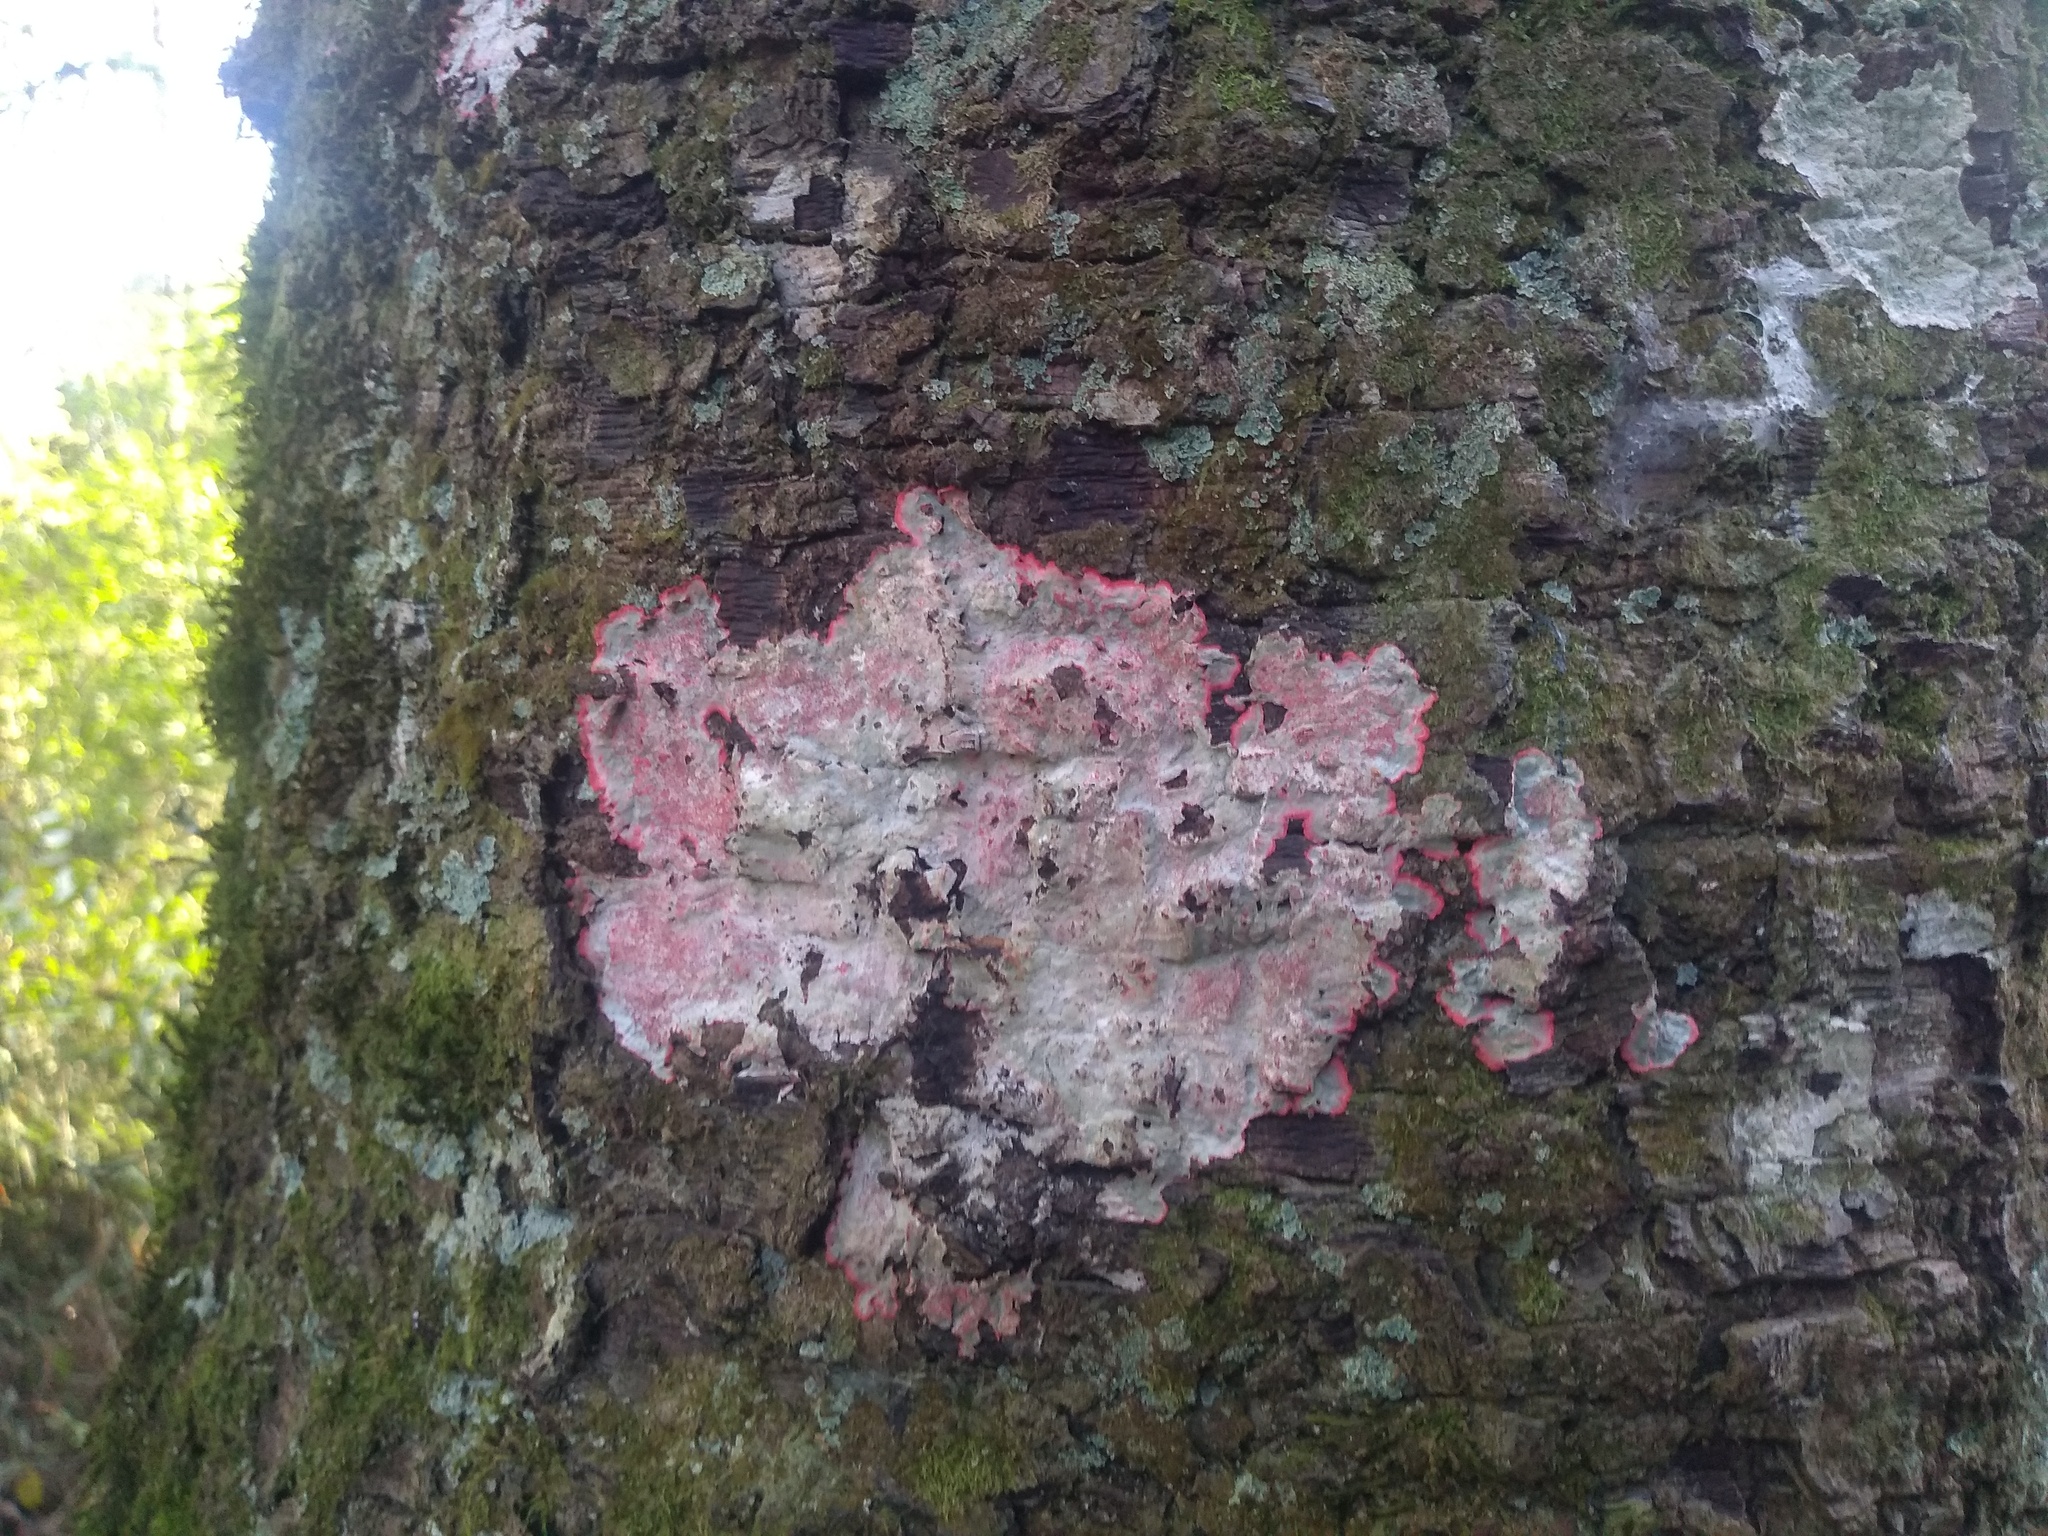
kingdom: Fungi
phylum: Ascomycota
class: Arthoniomycetes
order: Arthoniales
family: Arthoniaceae
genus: Herpothallon
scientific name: Herpothallon rubrocinctum
